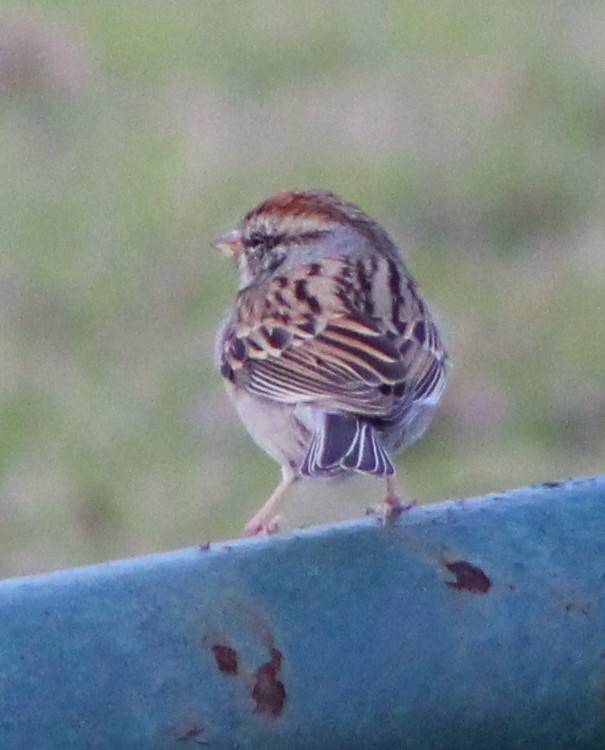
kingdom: Animalia
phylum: Chordata
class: Aves
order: Passeriformes
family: Passerellidae
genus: Spizella
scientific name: Spizella passerina
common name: Chipping sparrow
